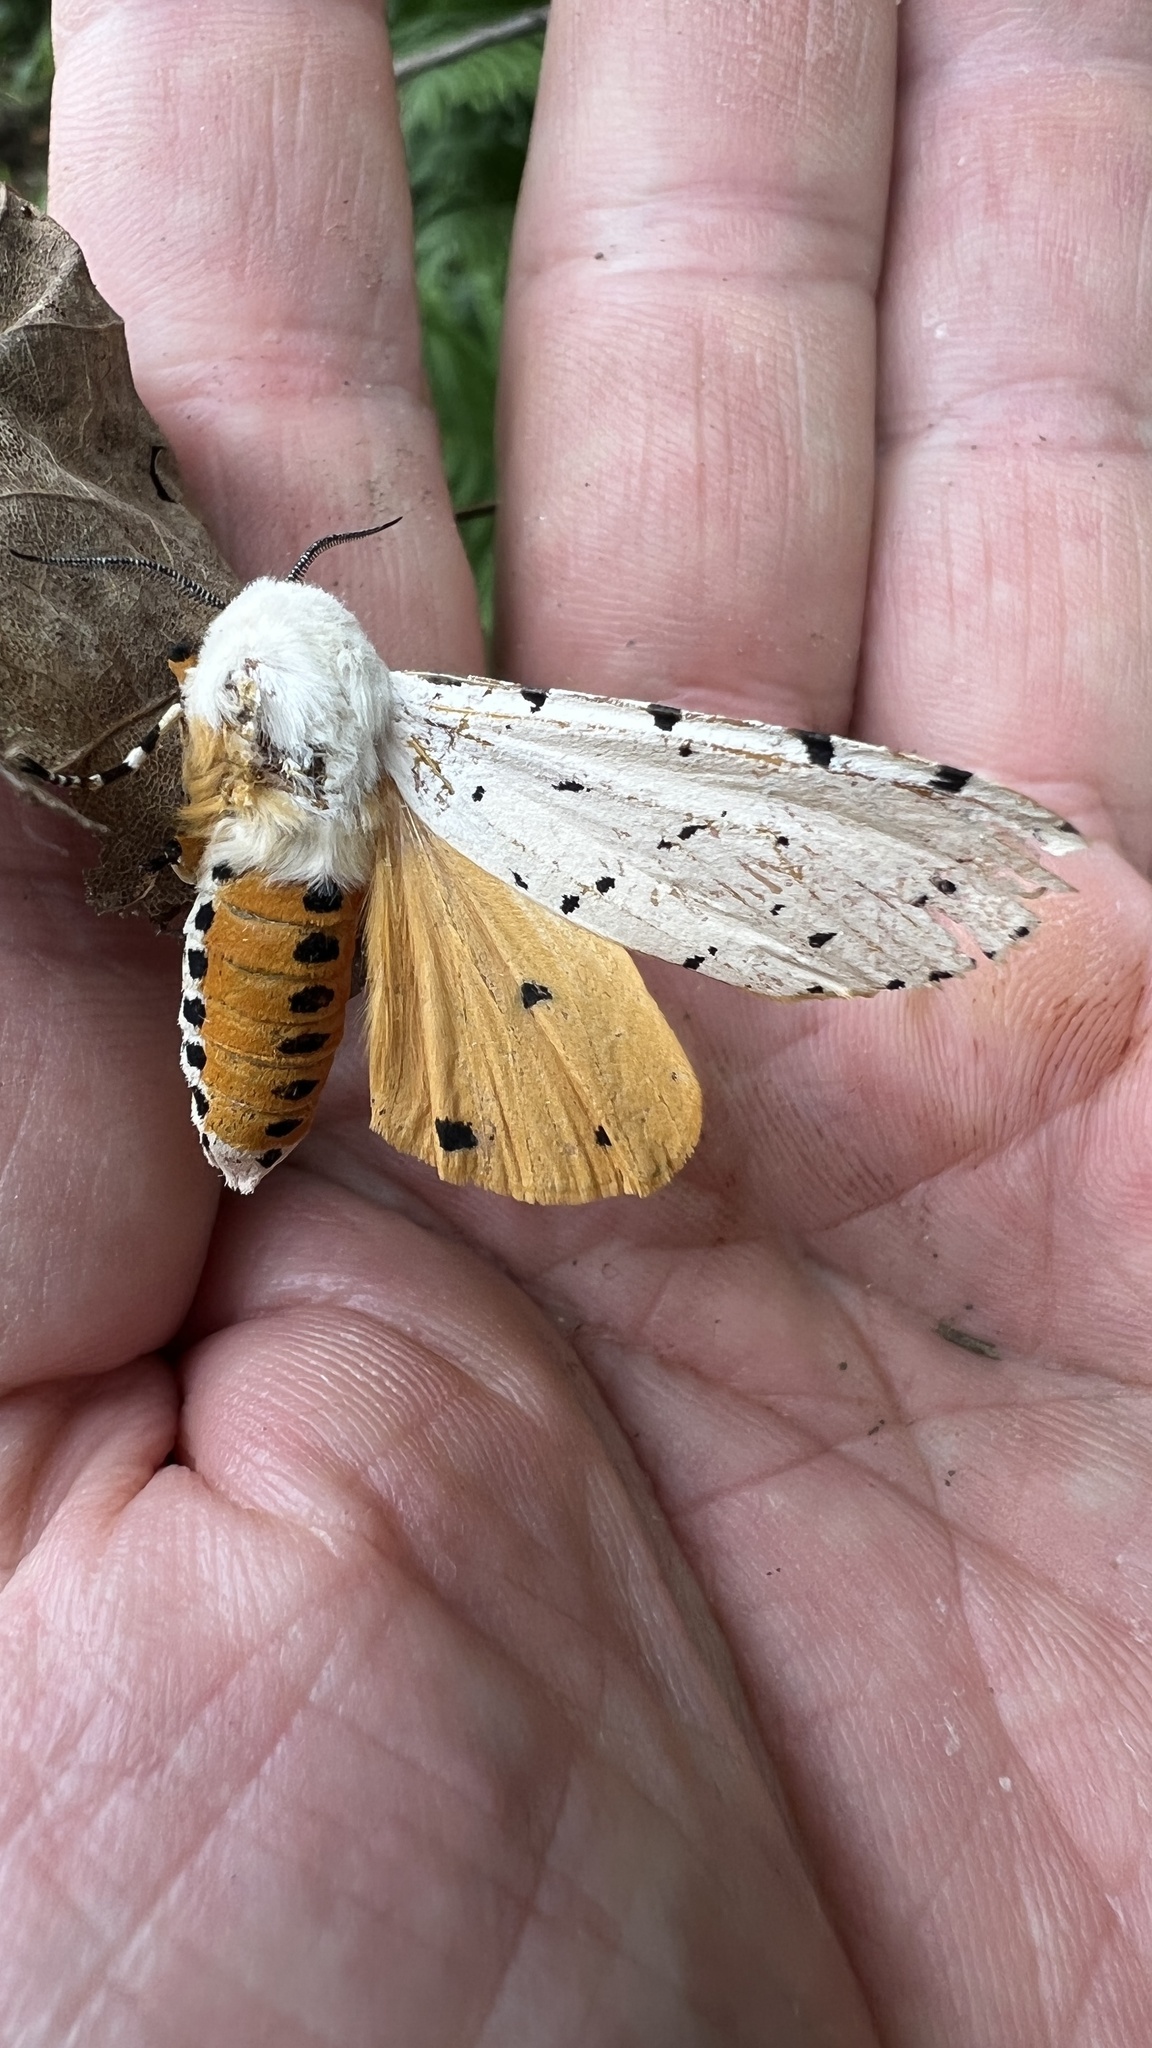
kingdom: Animalia
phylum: Arthropoda
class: Insecta
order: Lepidoptera
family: Erebidae
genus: Estigmene
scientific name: Estigmene acrea
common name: Salt marsh moth
